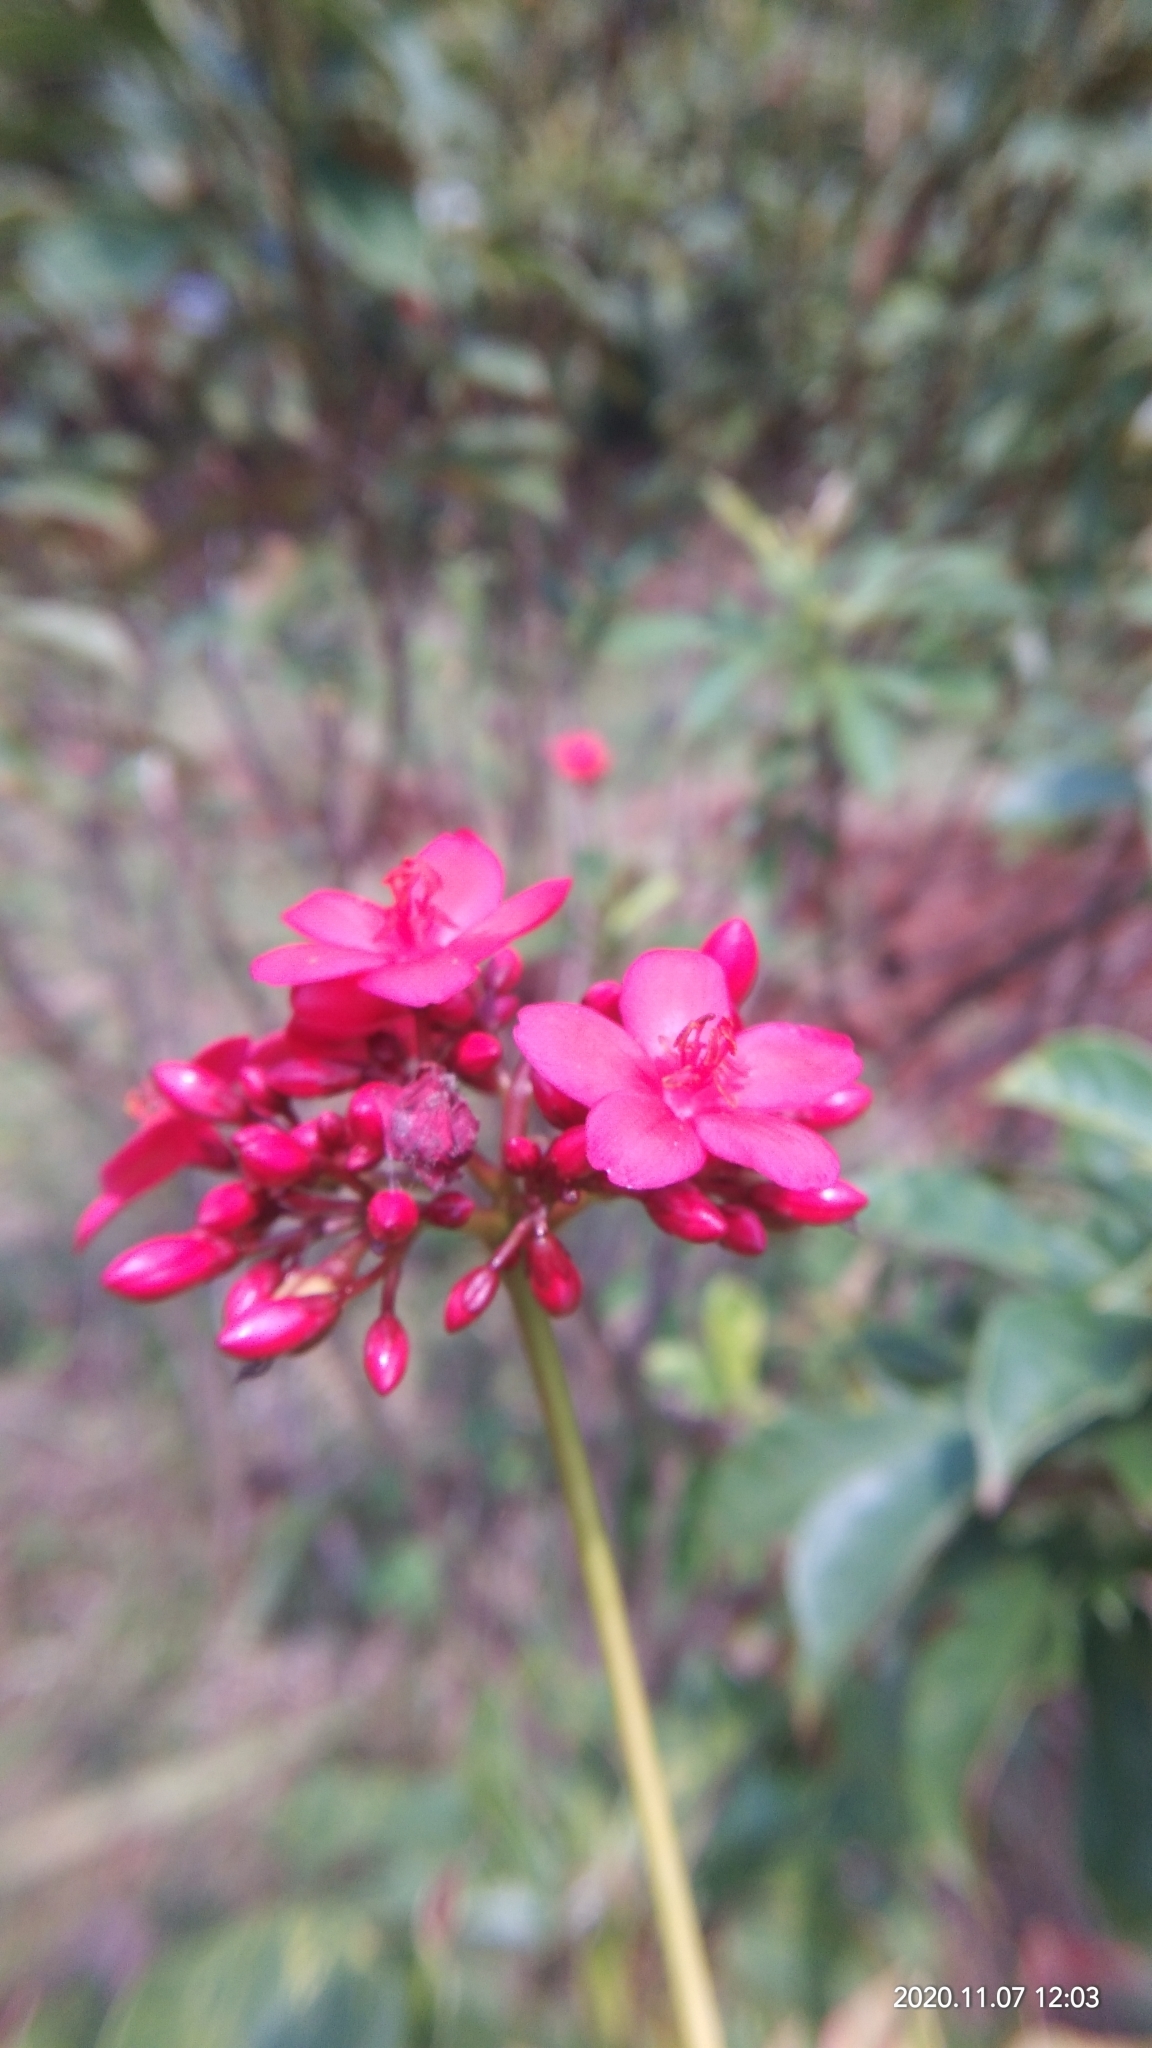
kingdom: Plantae
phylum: Tracheophyta
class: Magnoliopsida
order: Malpighiales
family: Euphorbiaceae
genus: Jatropha
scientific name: Jatropha integerrima
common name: Peregrina
